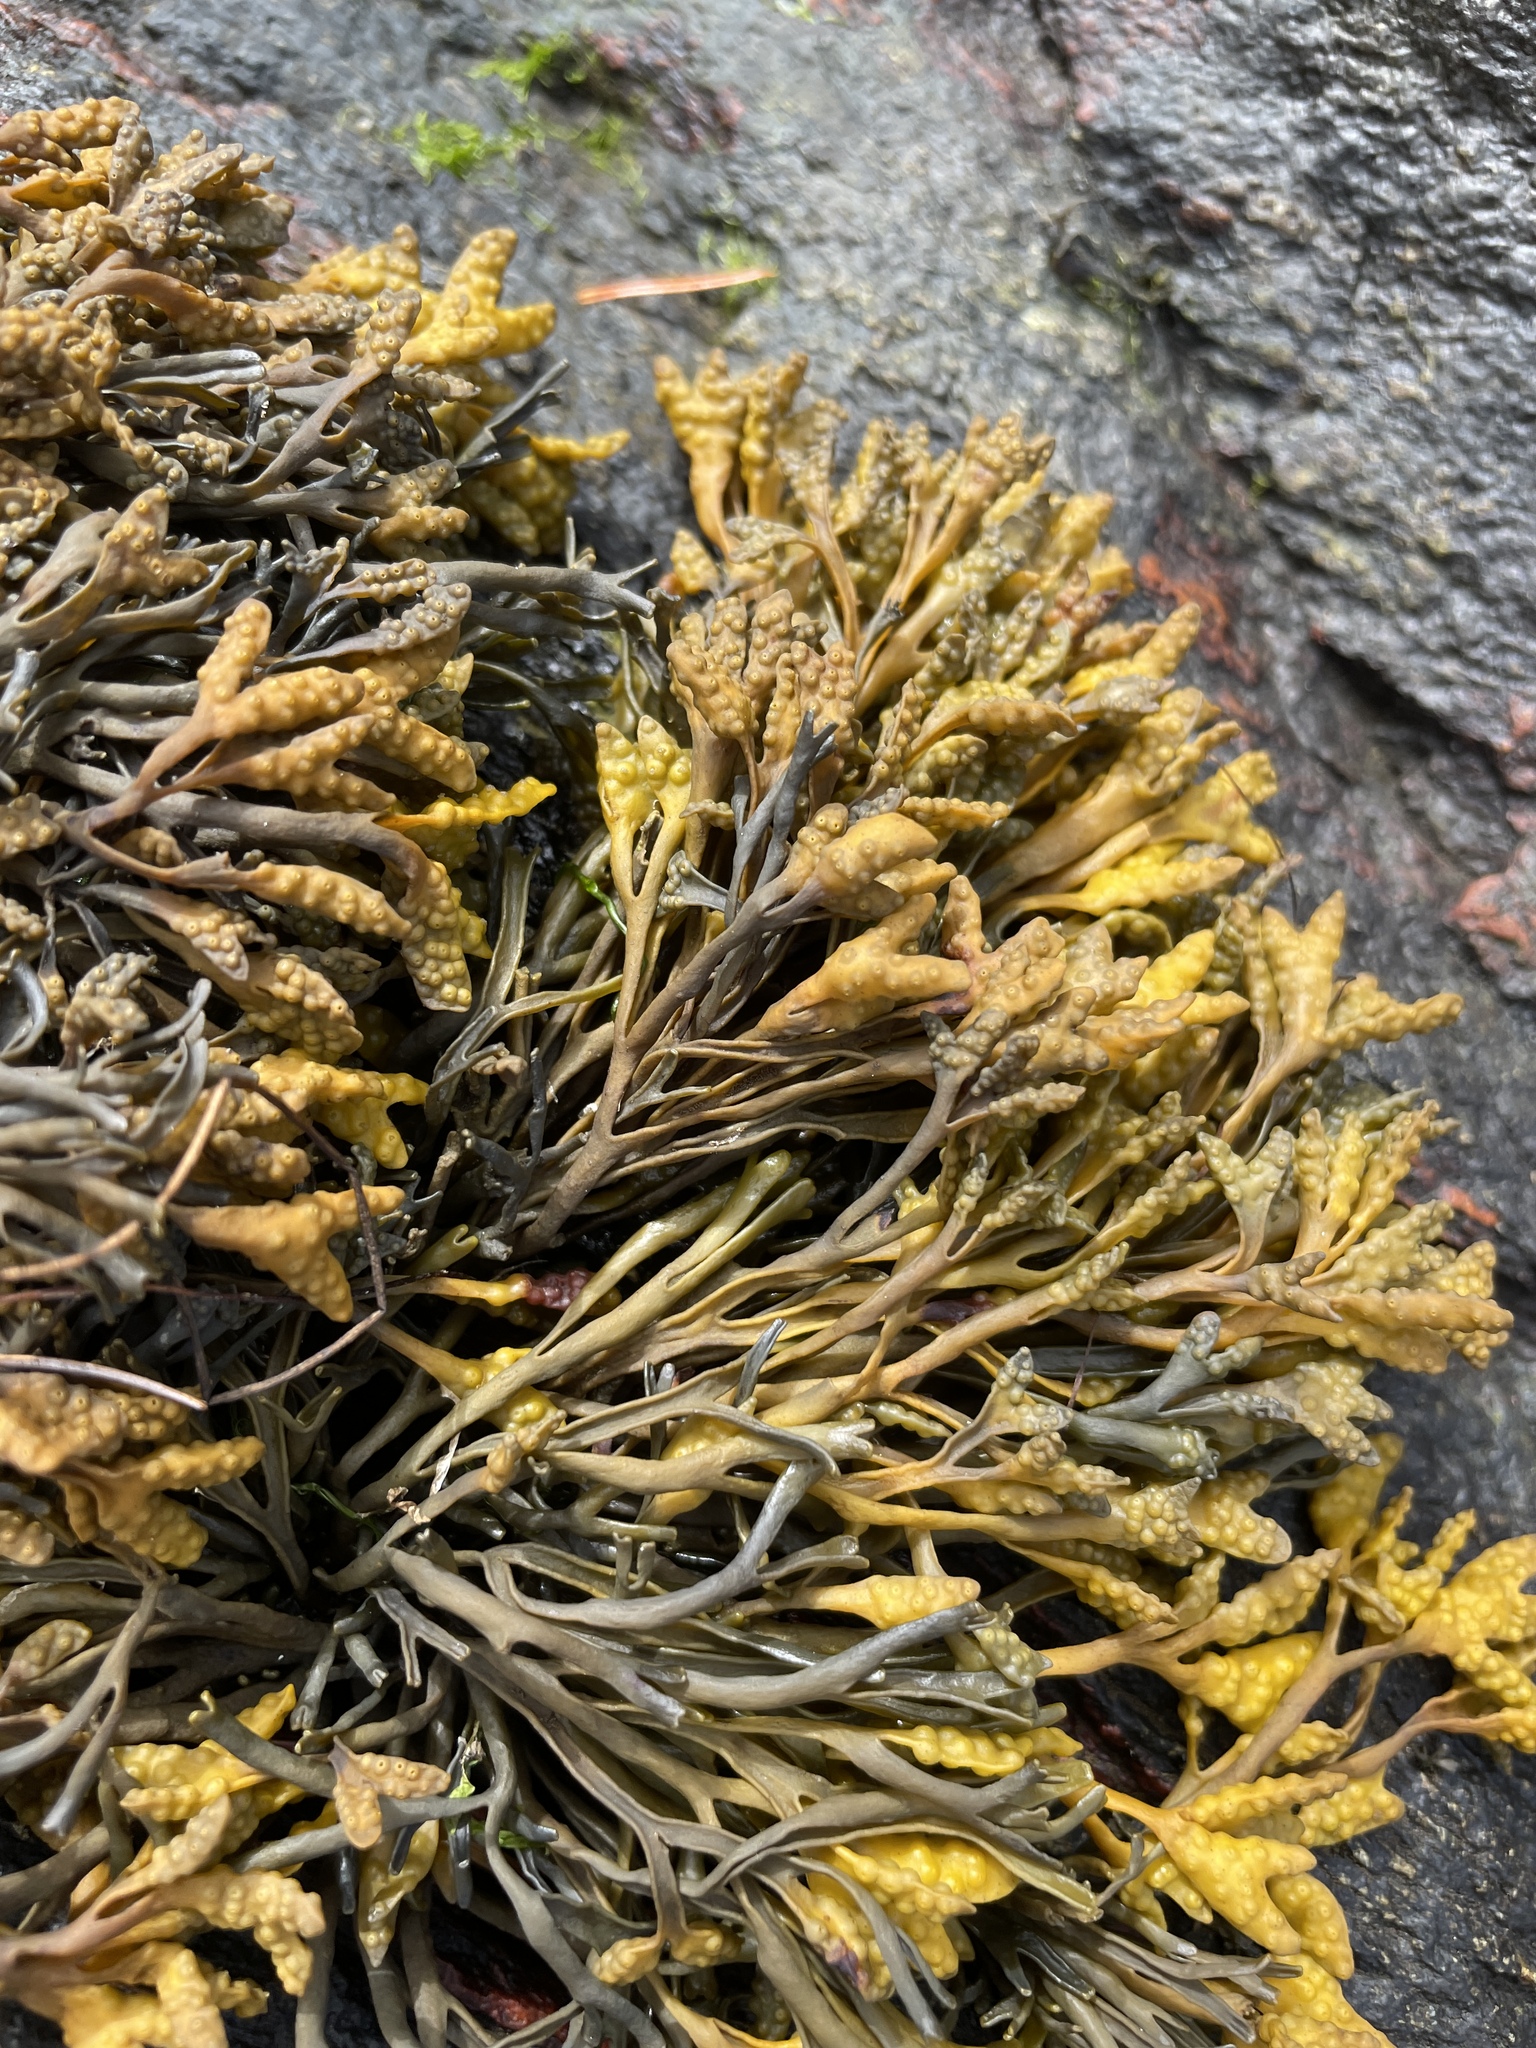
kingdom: Chromista
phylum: Ochrophyta
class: Phaeophyceae
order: Fucales
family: Fucaceae
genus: Pelvetia
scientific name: Pelvetia canaliculata
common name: Channelled wrack
